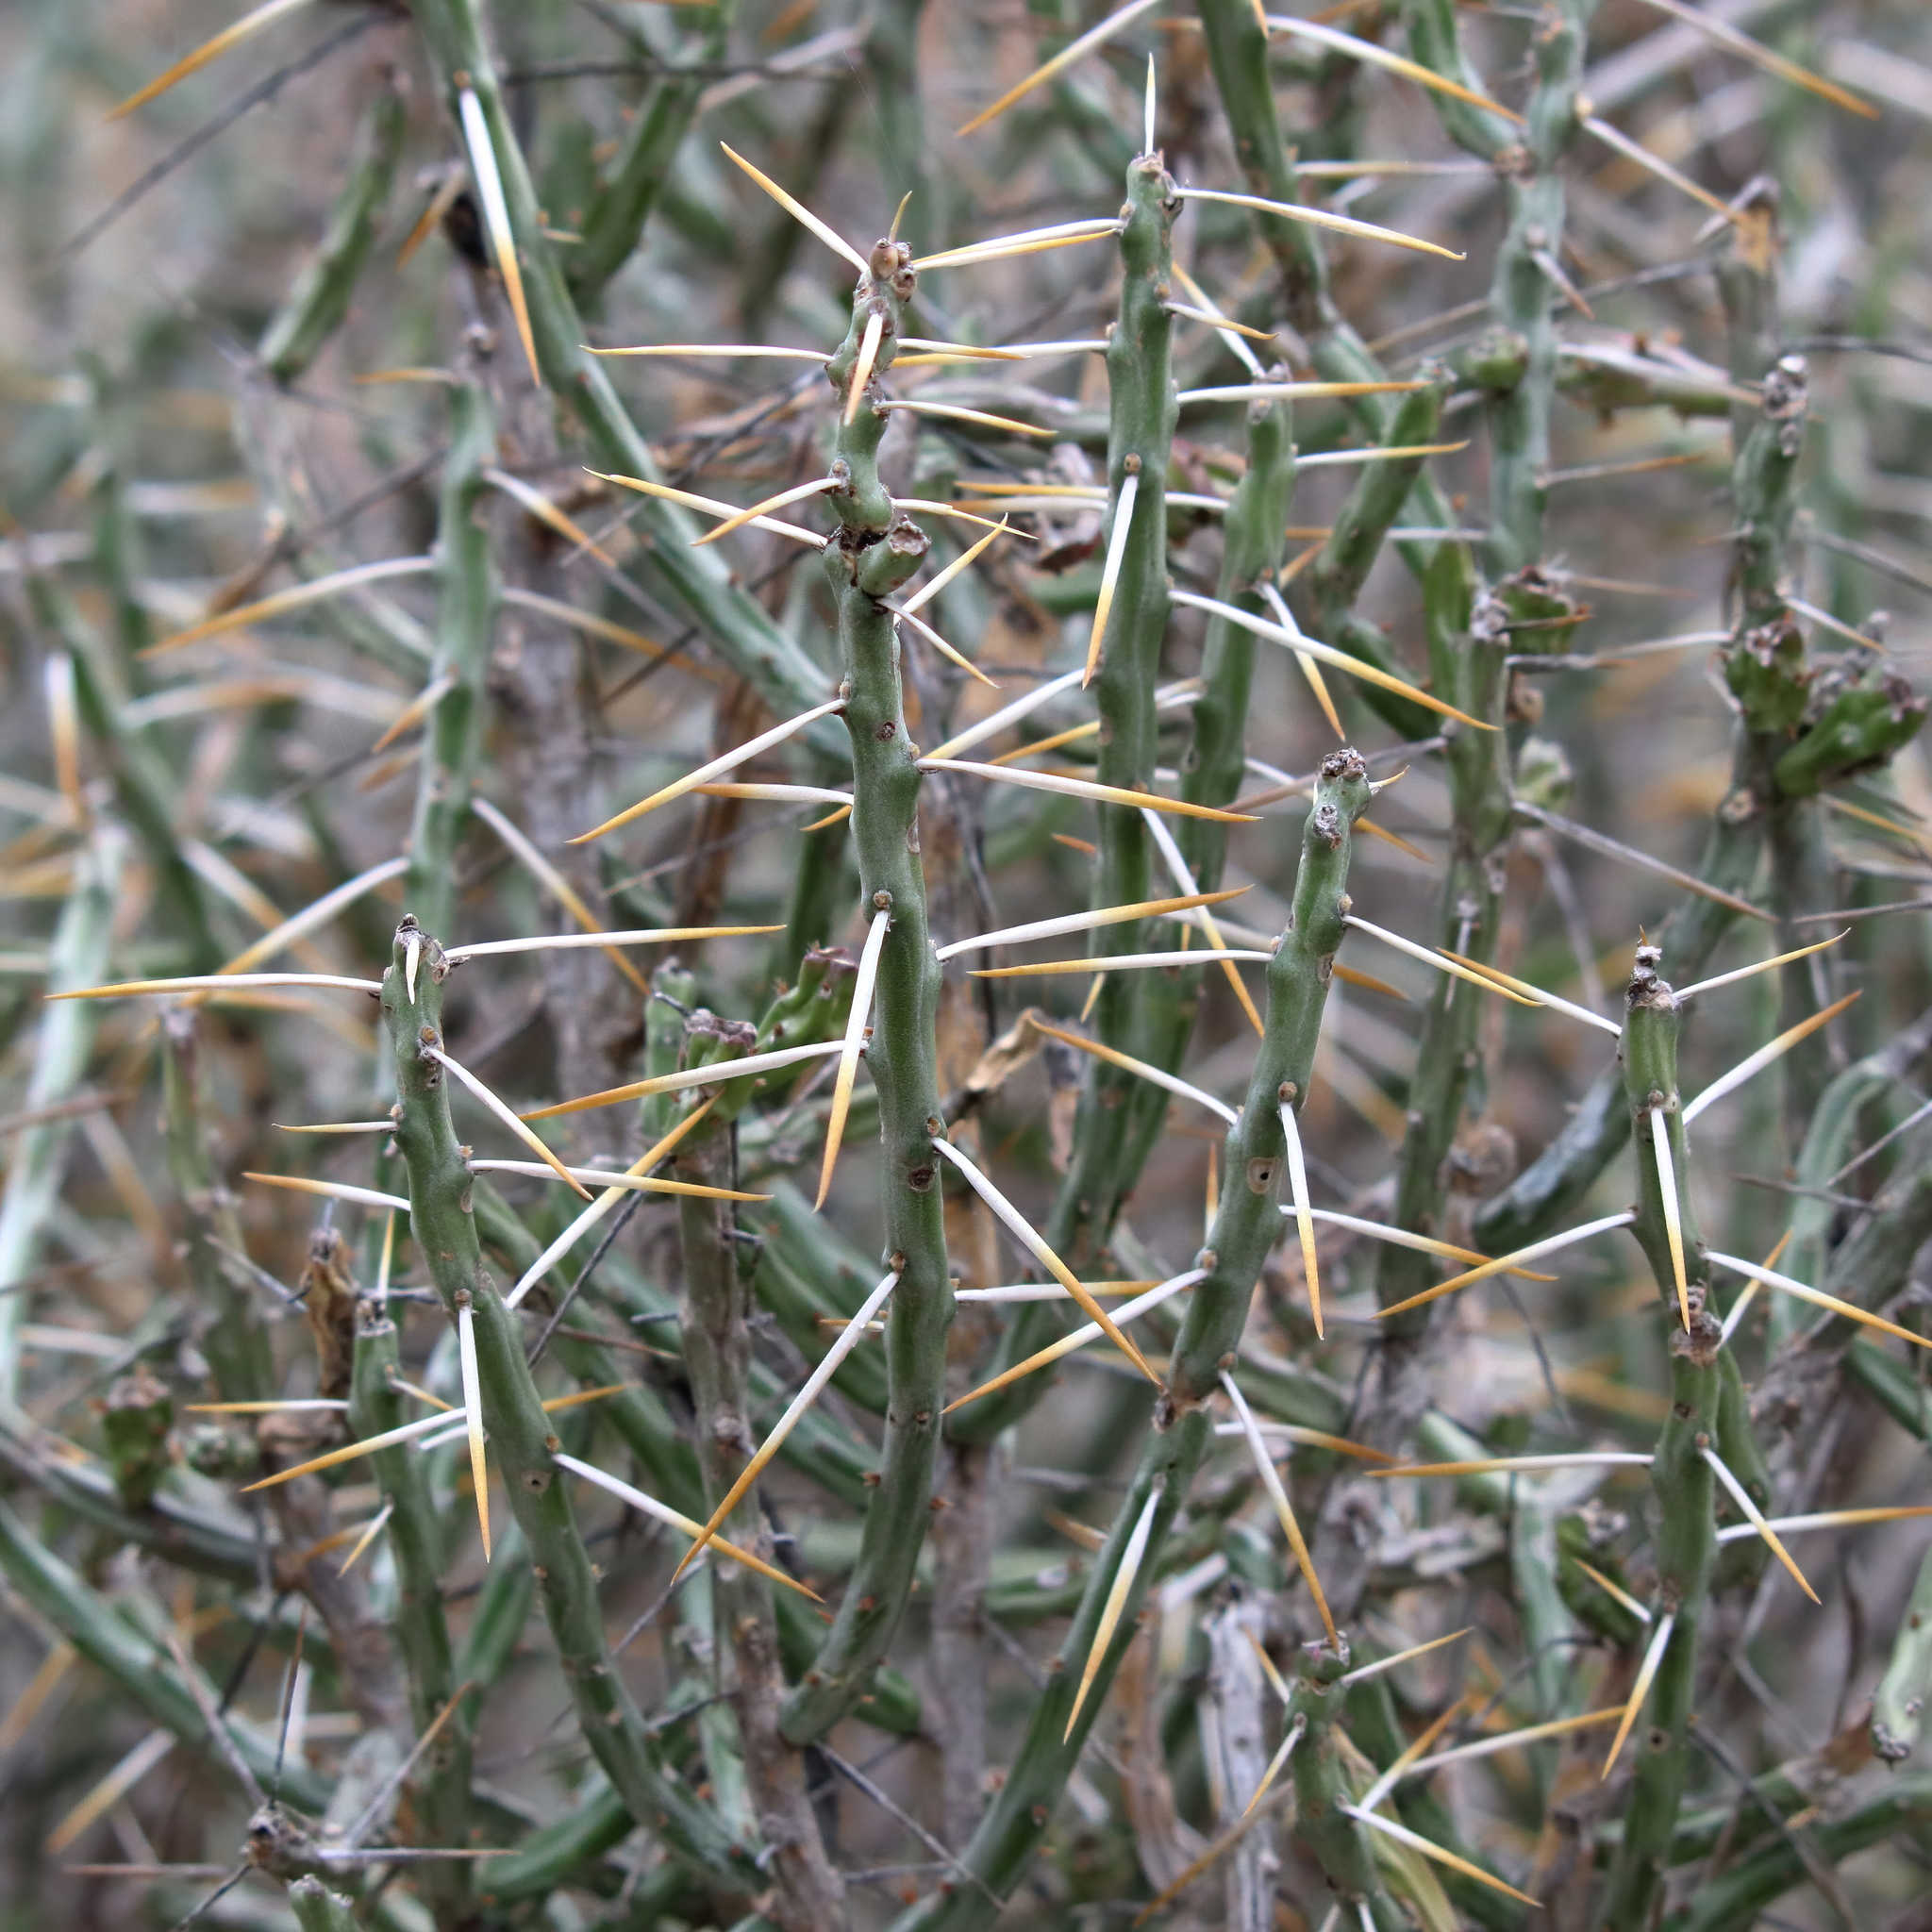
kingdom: Plantae
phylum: Tracheophyta
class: Magnoliopsida
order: Caryophyllales
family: Cactaceae
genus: Cylindropuntia
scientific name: Cylindropuntia leptocaulis
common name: Christmas cactus
